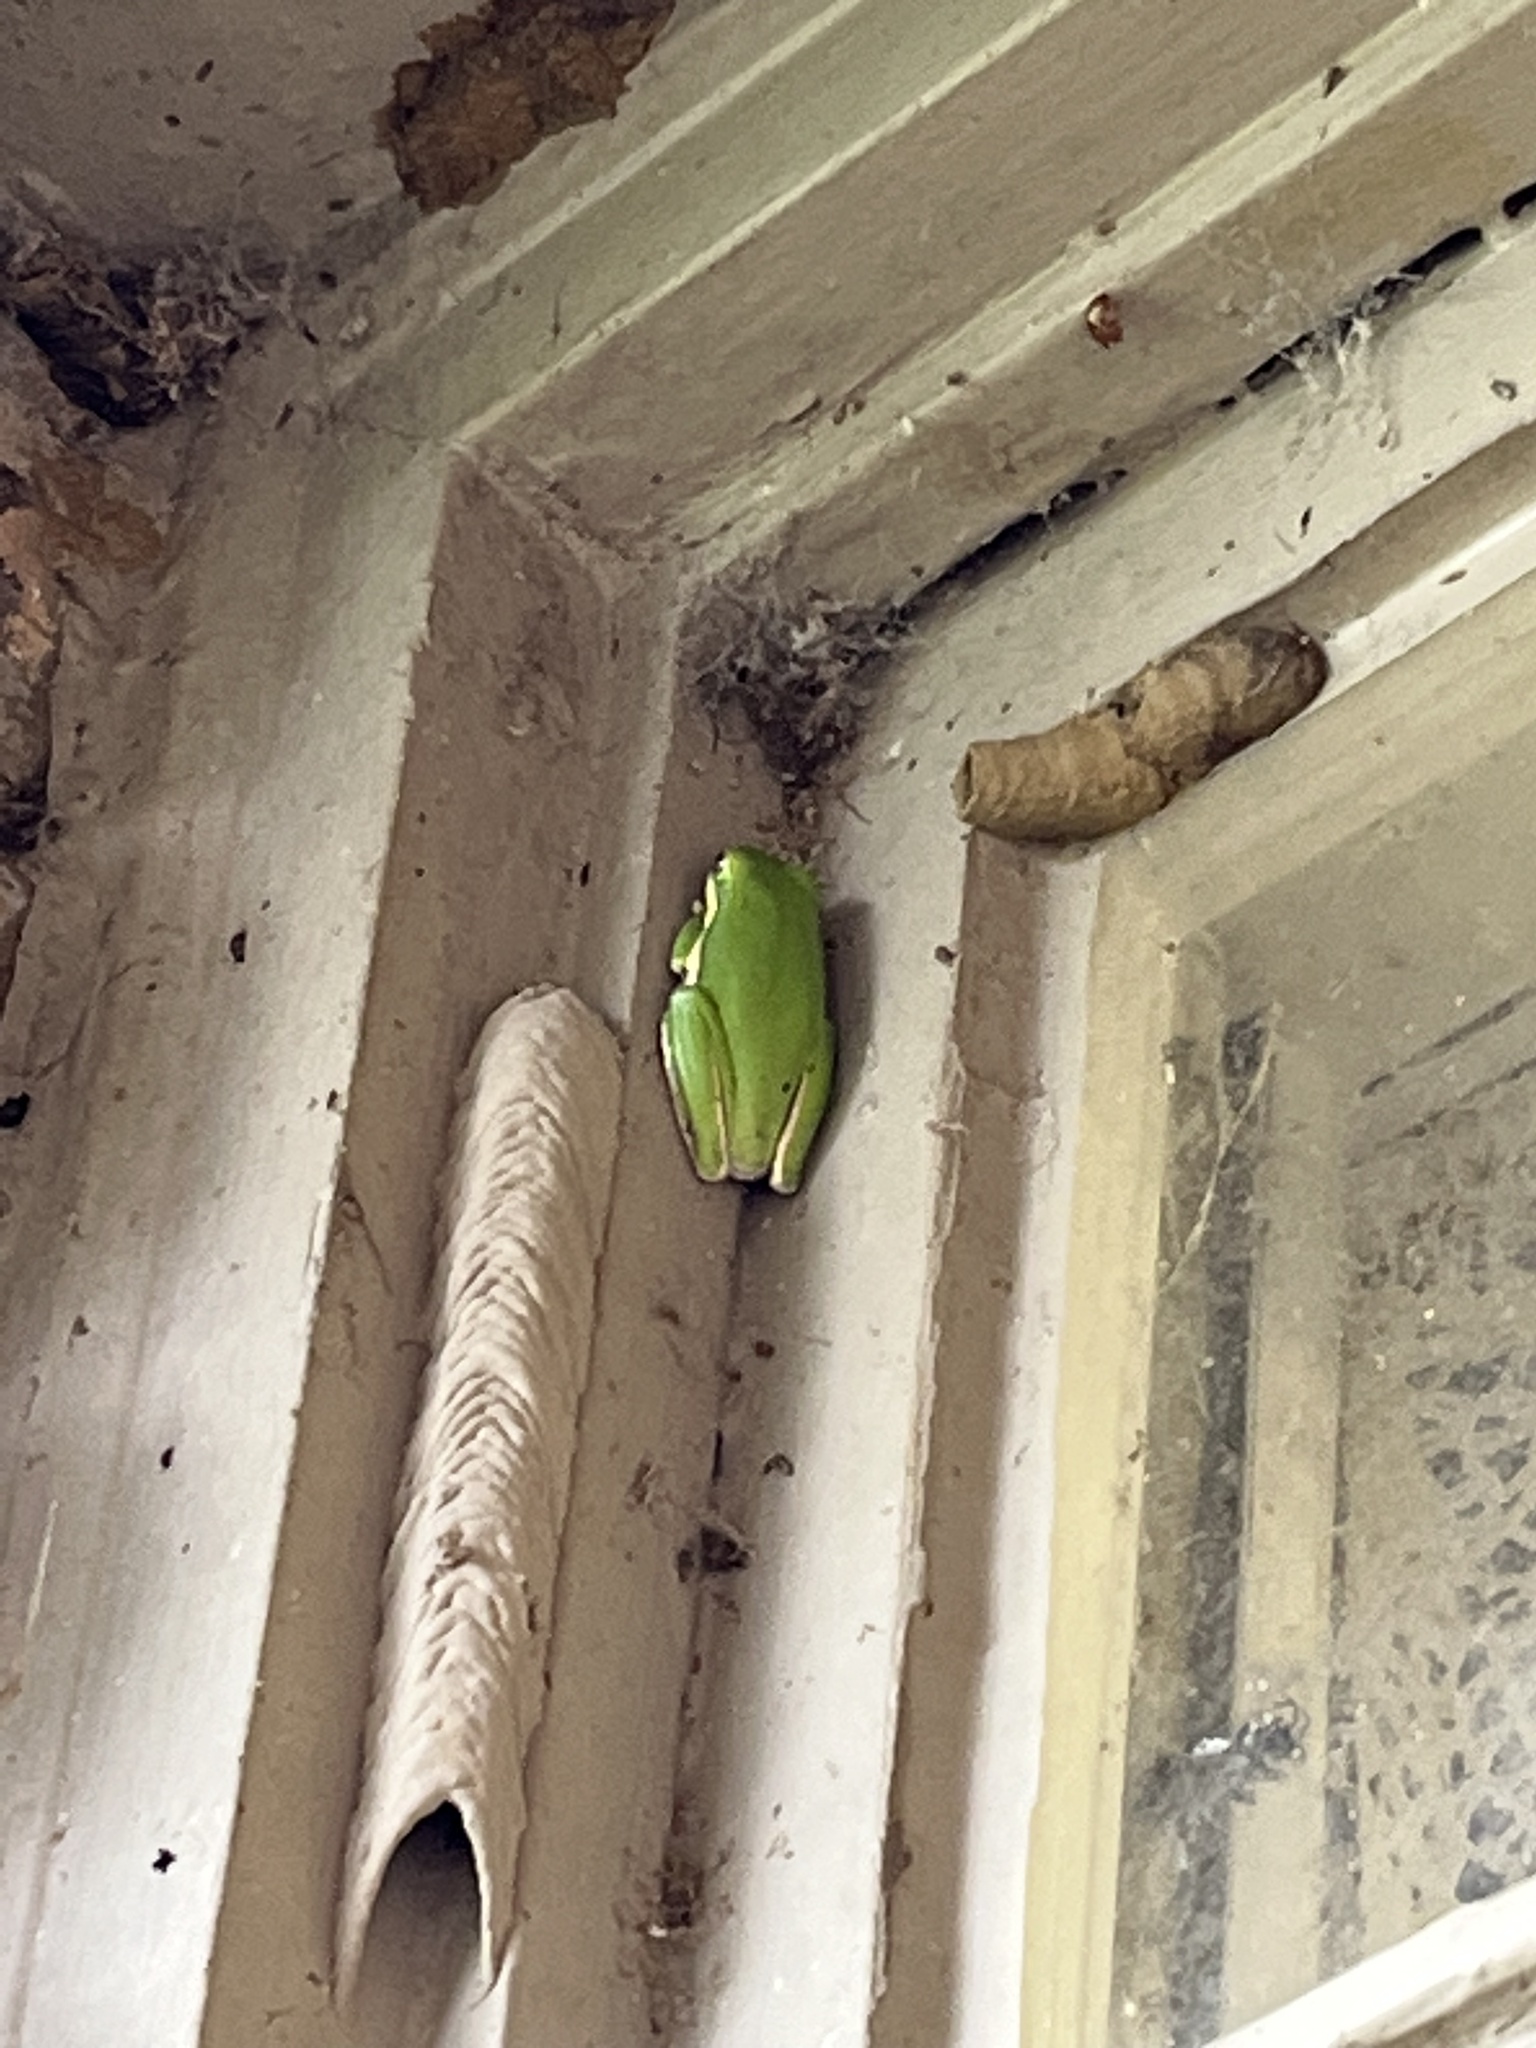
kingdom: Animalia
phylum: Chordata
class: Amphibia
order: Anura
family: Hylidae
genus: Dryophytes
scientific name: Dryophytes cinereus
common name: Green treefrog
